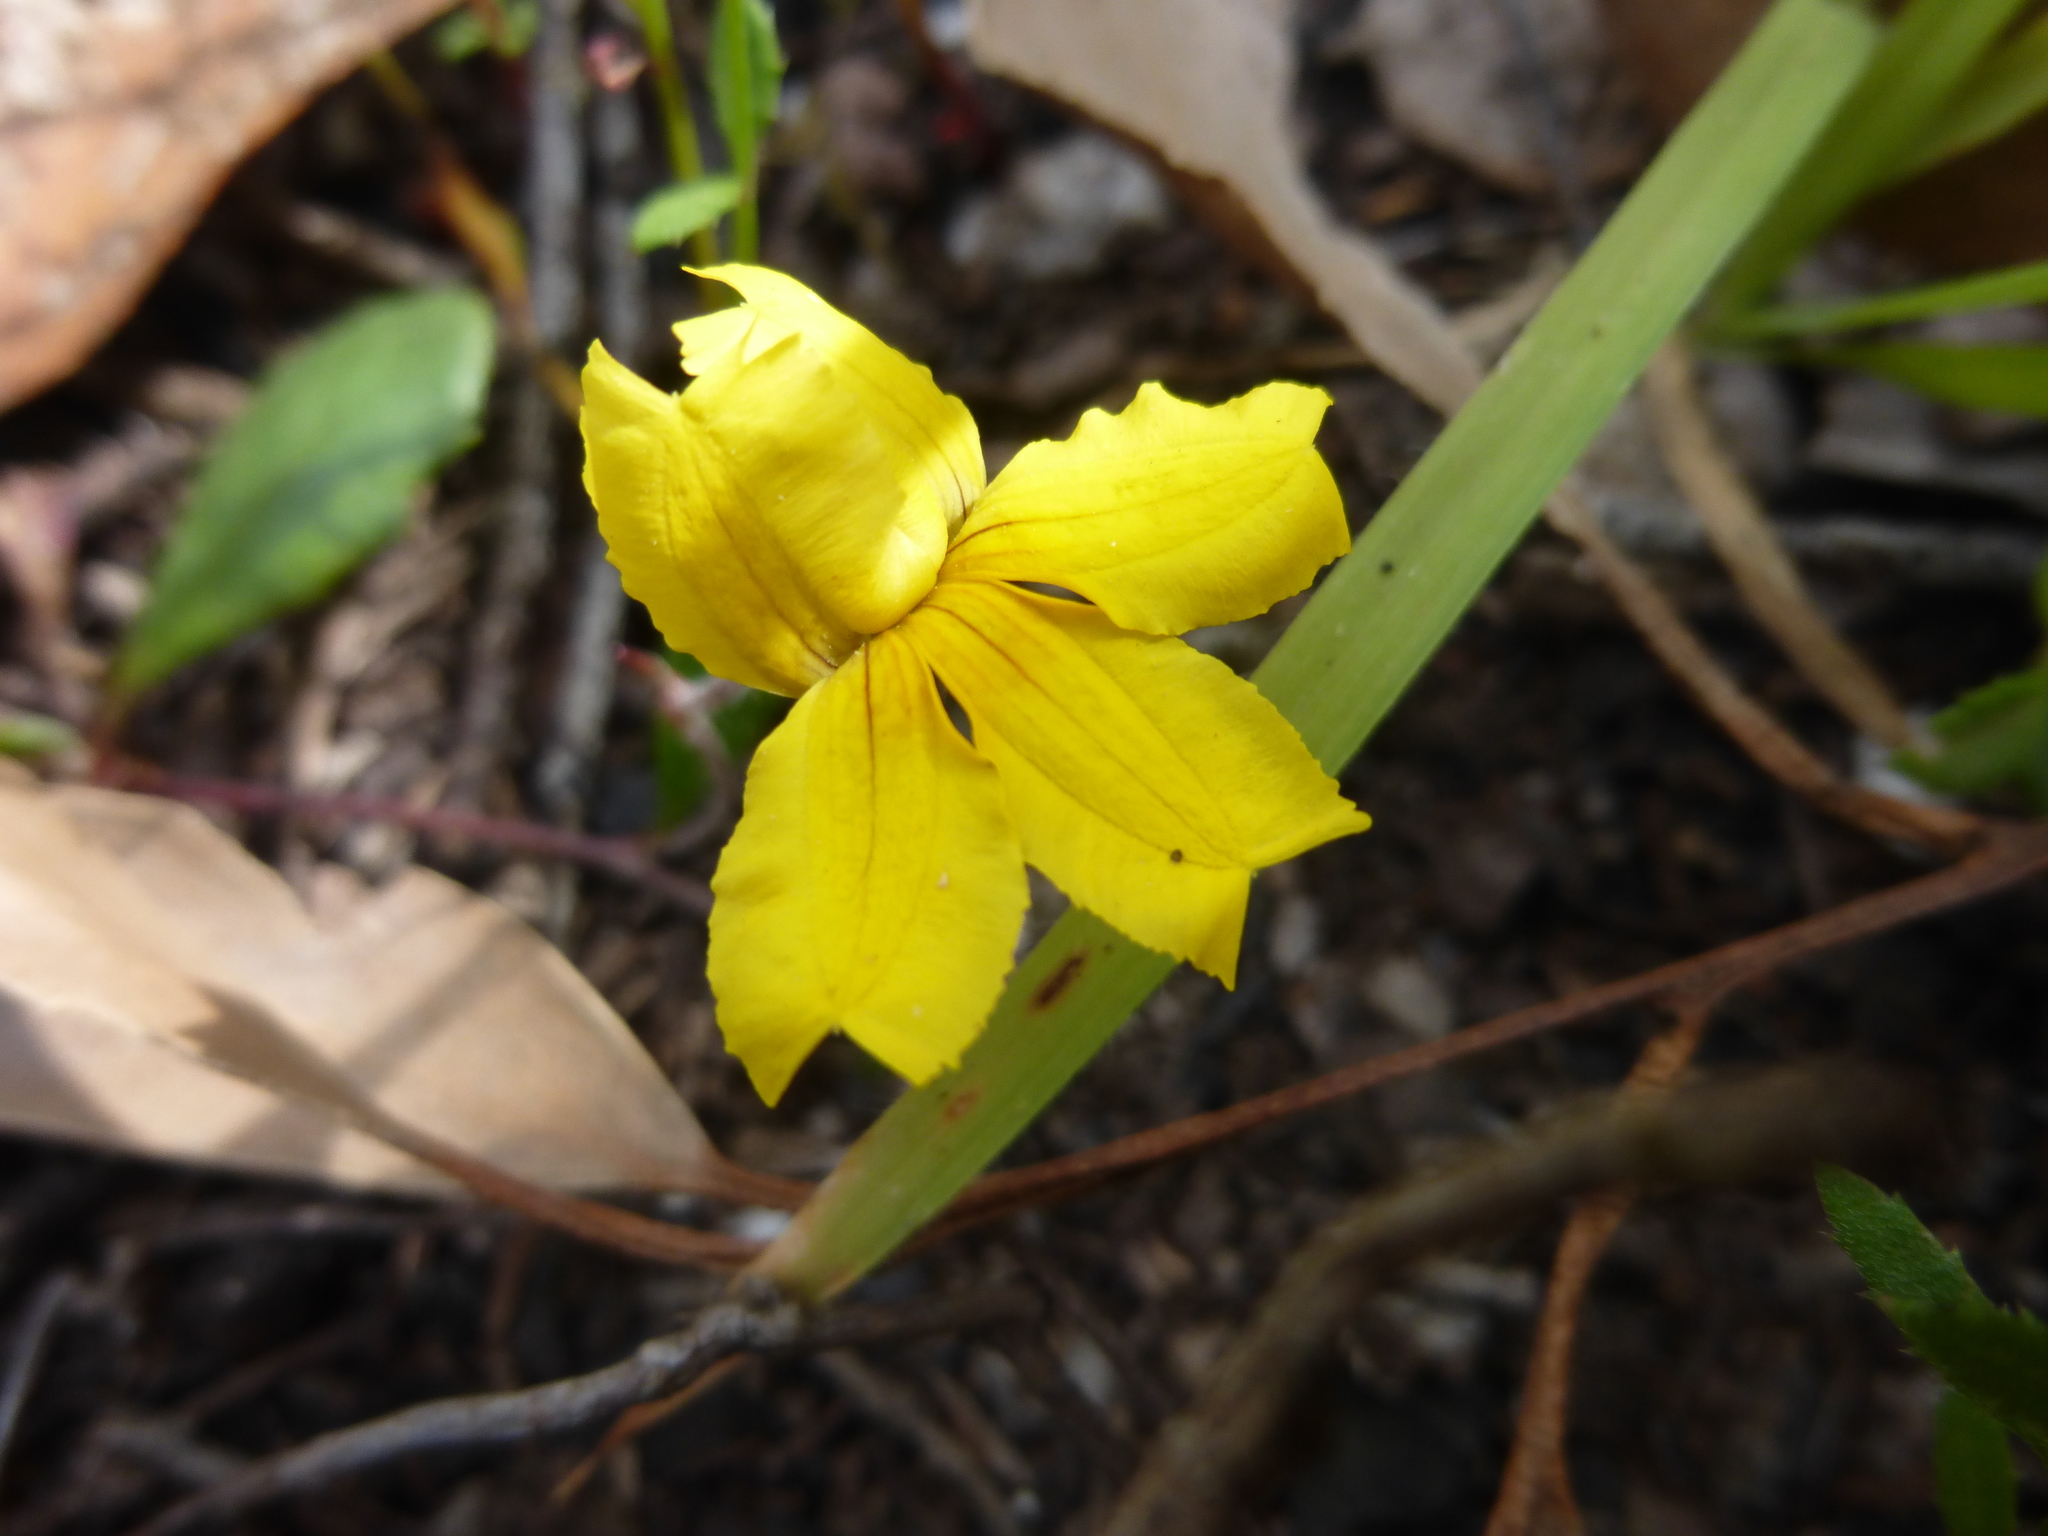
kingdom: Plantae
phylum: Tracheophyta
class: Magnoliopsida
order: Asterales
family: Goodeniaceae
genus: Goodenia
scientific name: Goodenia lanata
